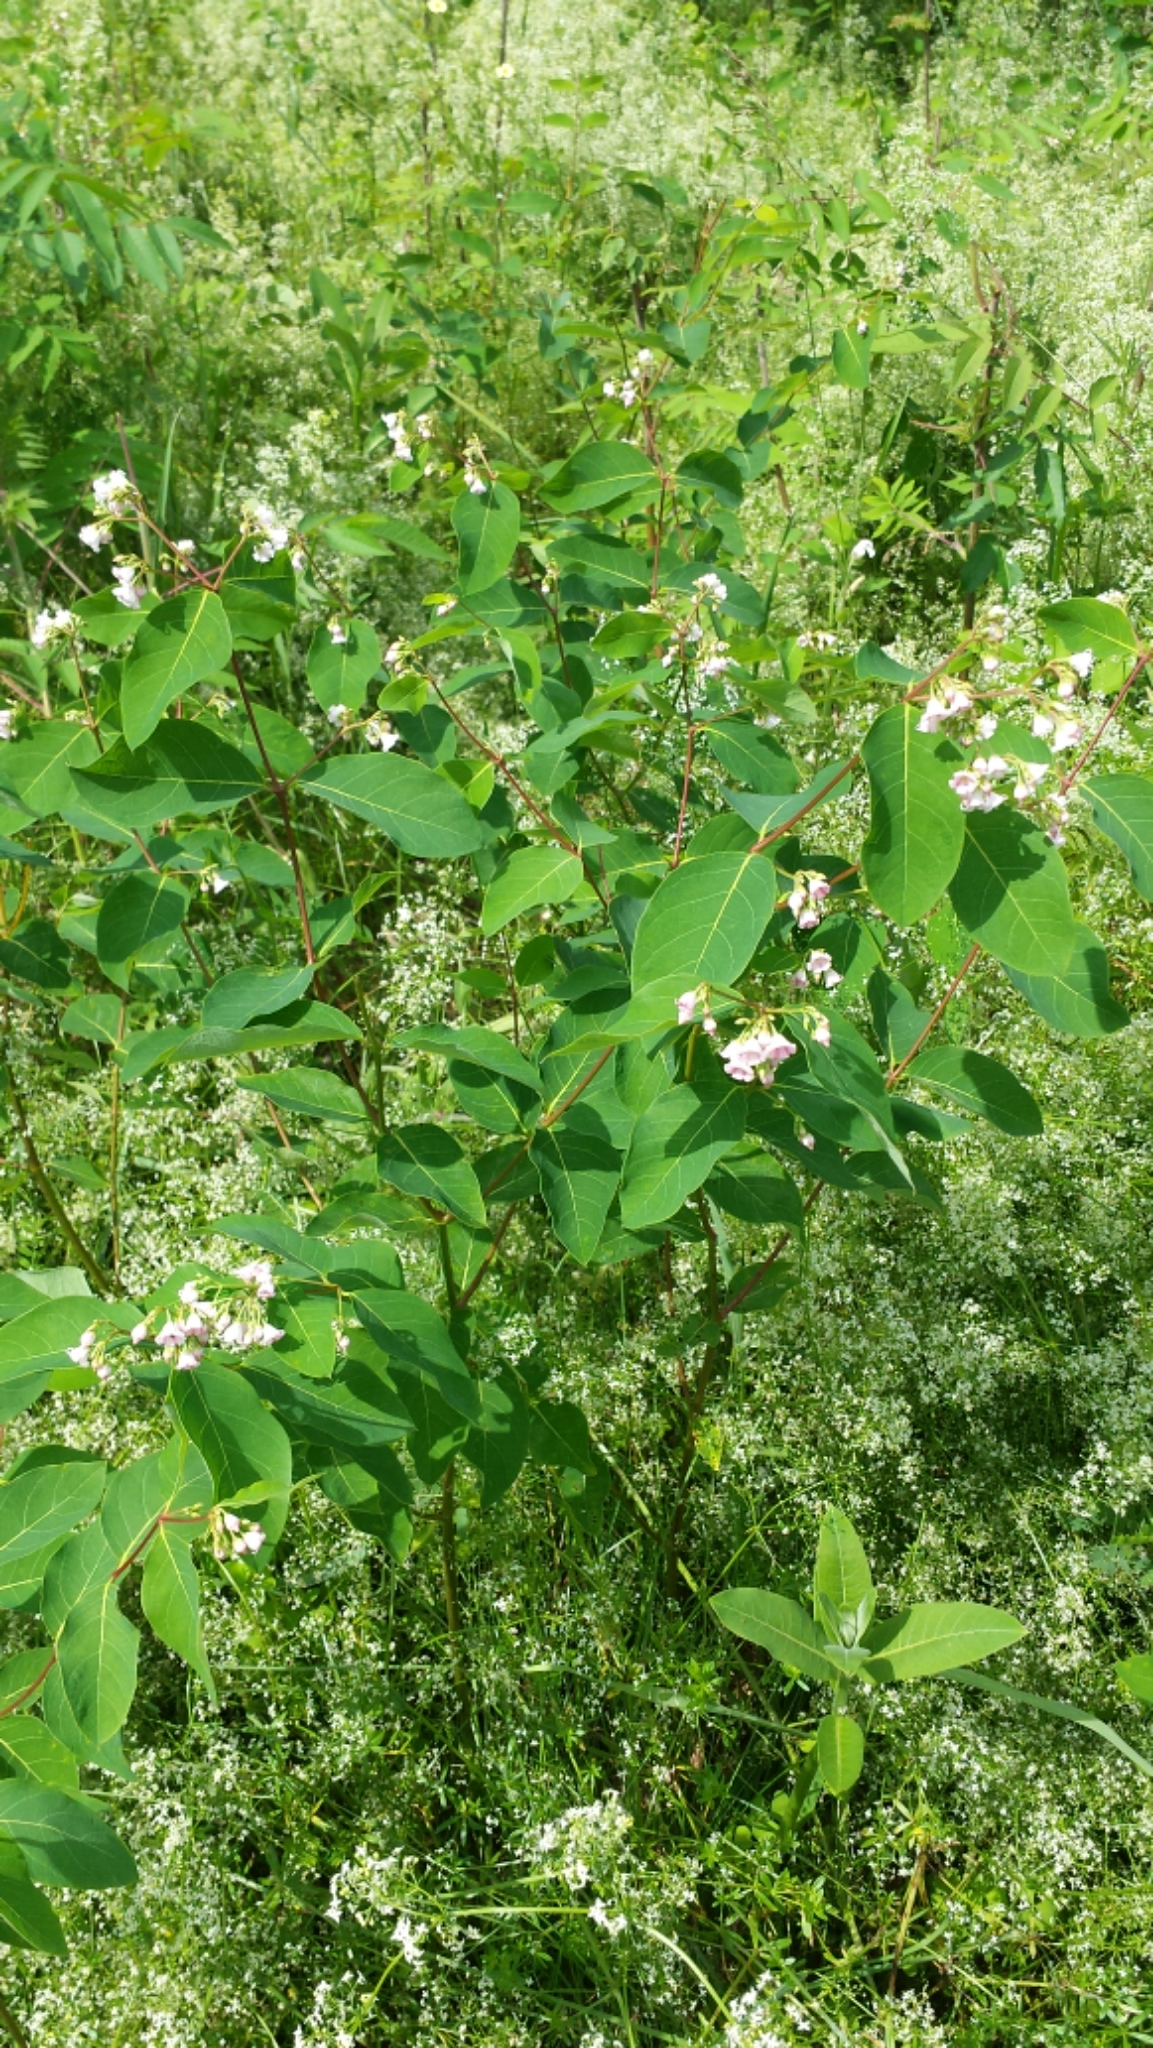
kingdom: Plantae
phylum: Tracheophyta
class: Magnoliopsida
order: Gentianales
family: Apocynaceae
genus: Apocynum
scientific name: Apocynum androsaemifolium
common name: Spreading dogbane
